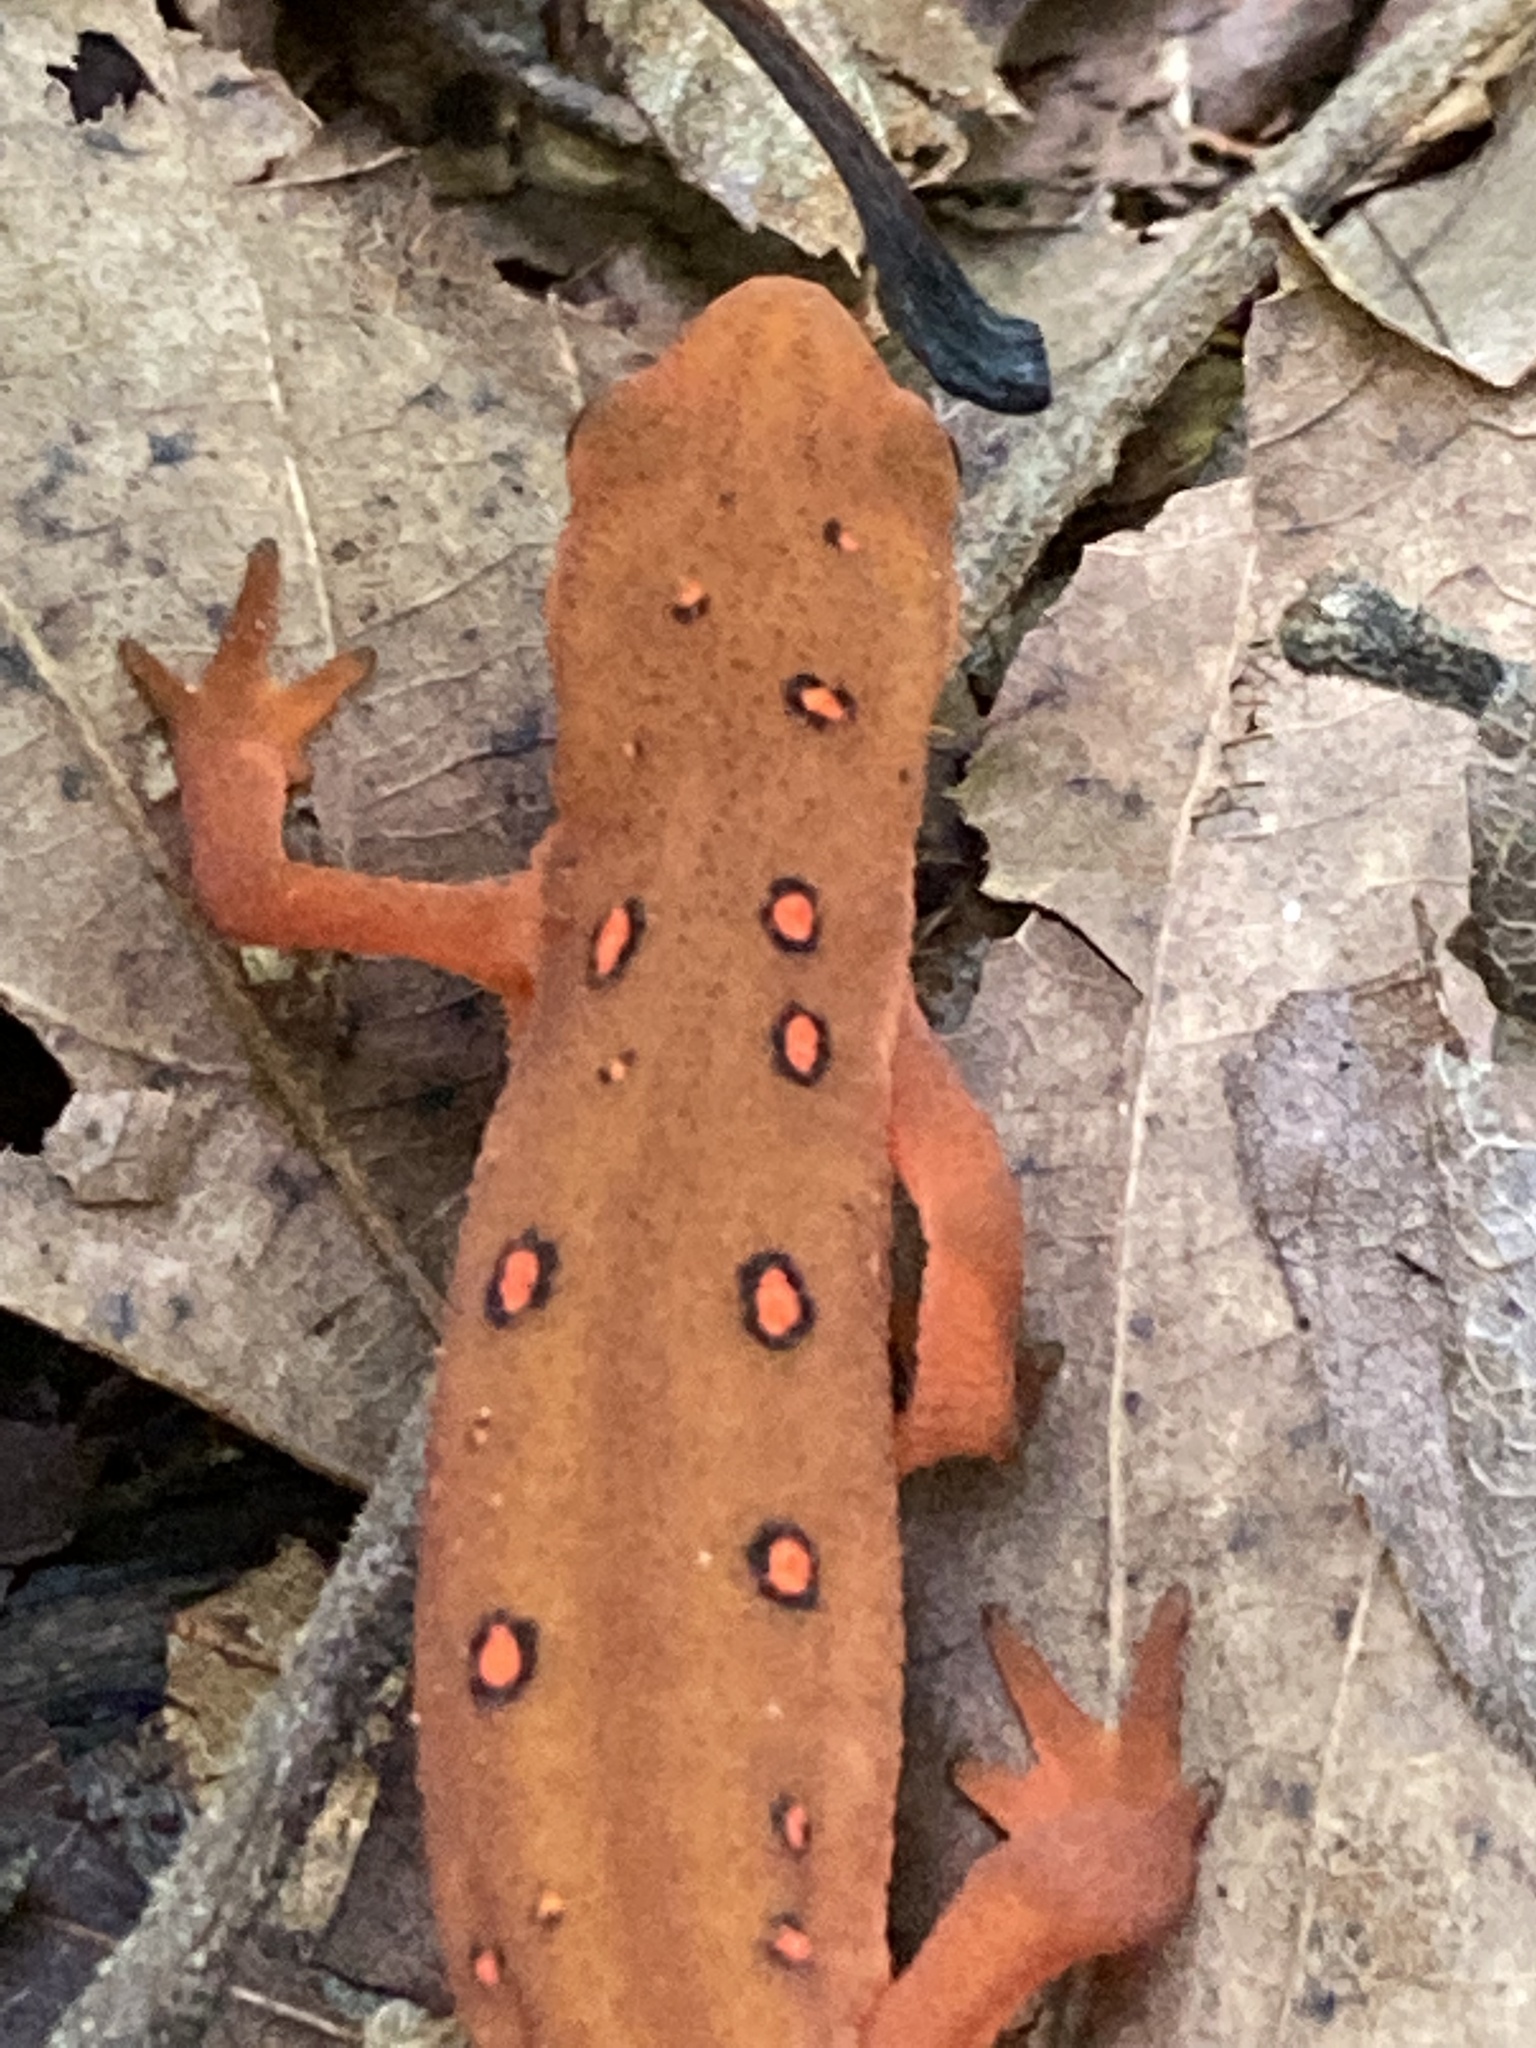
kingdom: Animalia
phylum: Chordata
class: Amphibia
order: Caudata
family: Salamandridae
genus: Notophthalmus
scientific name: Notophthalmus viridescens
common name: Eastern newt
